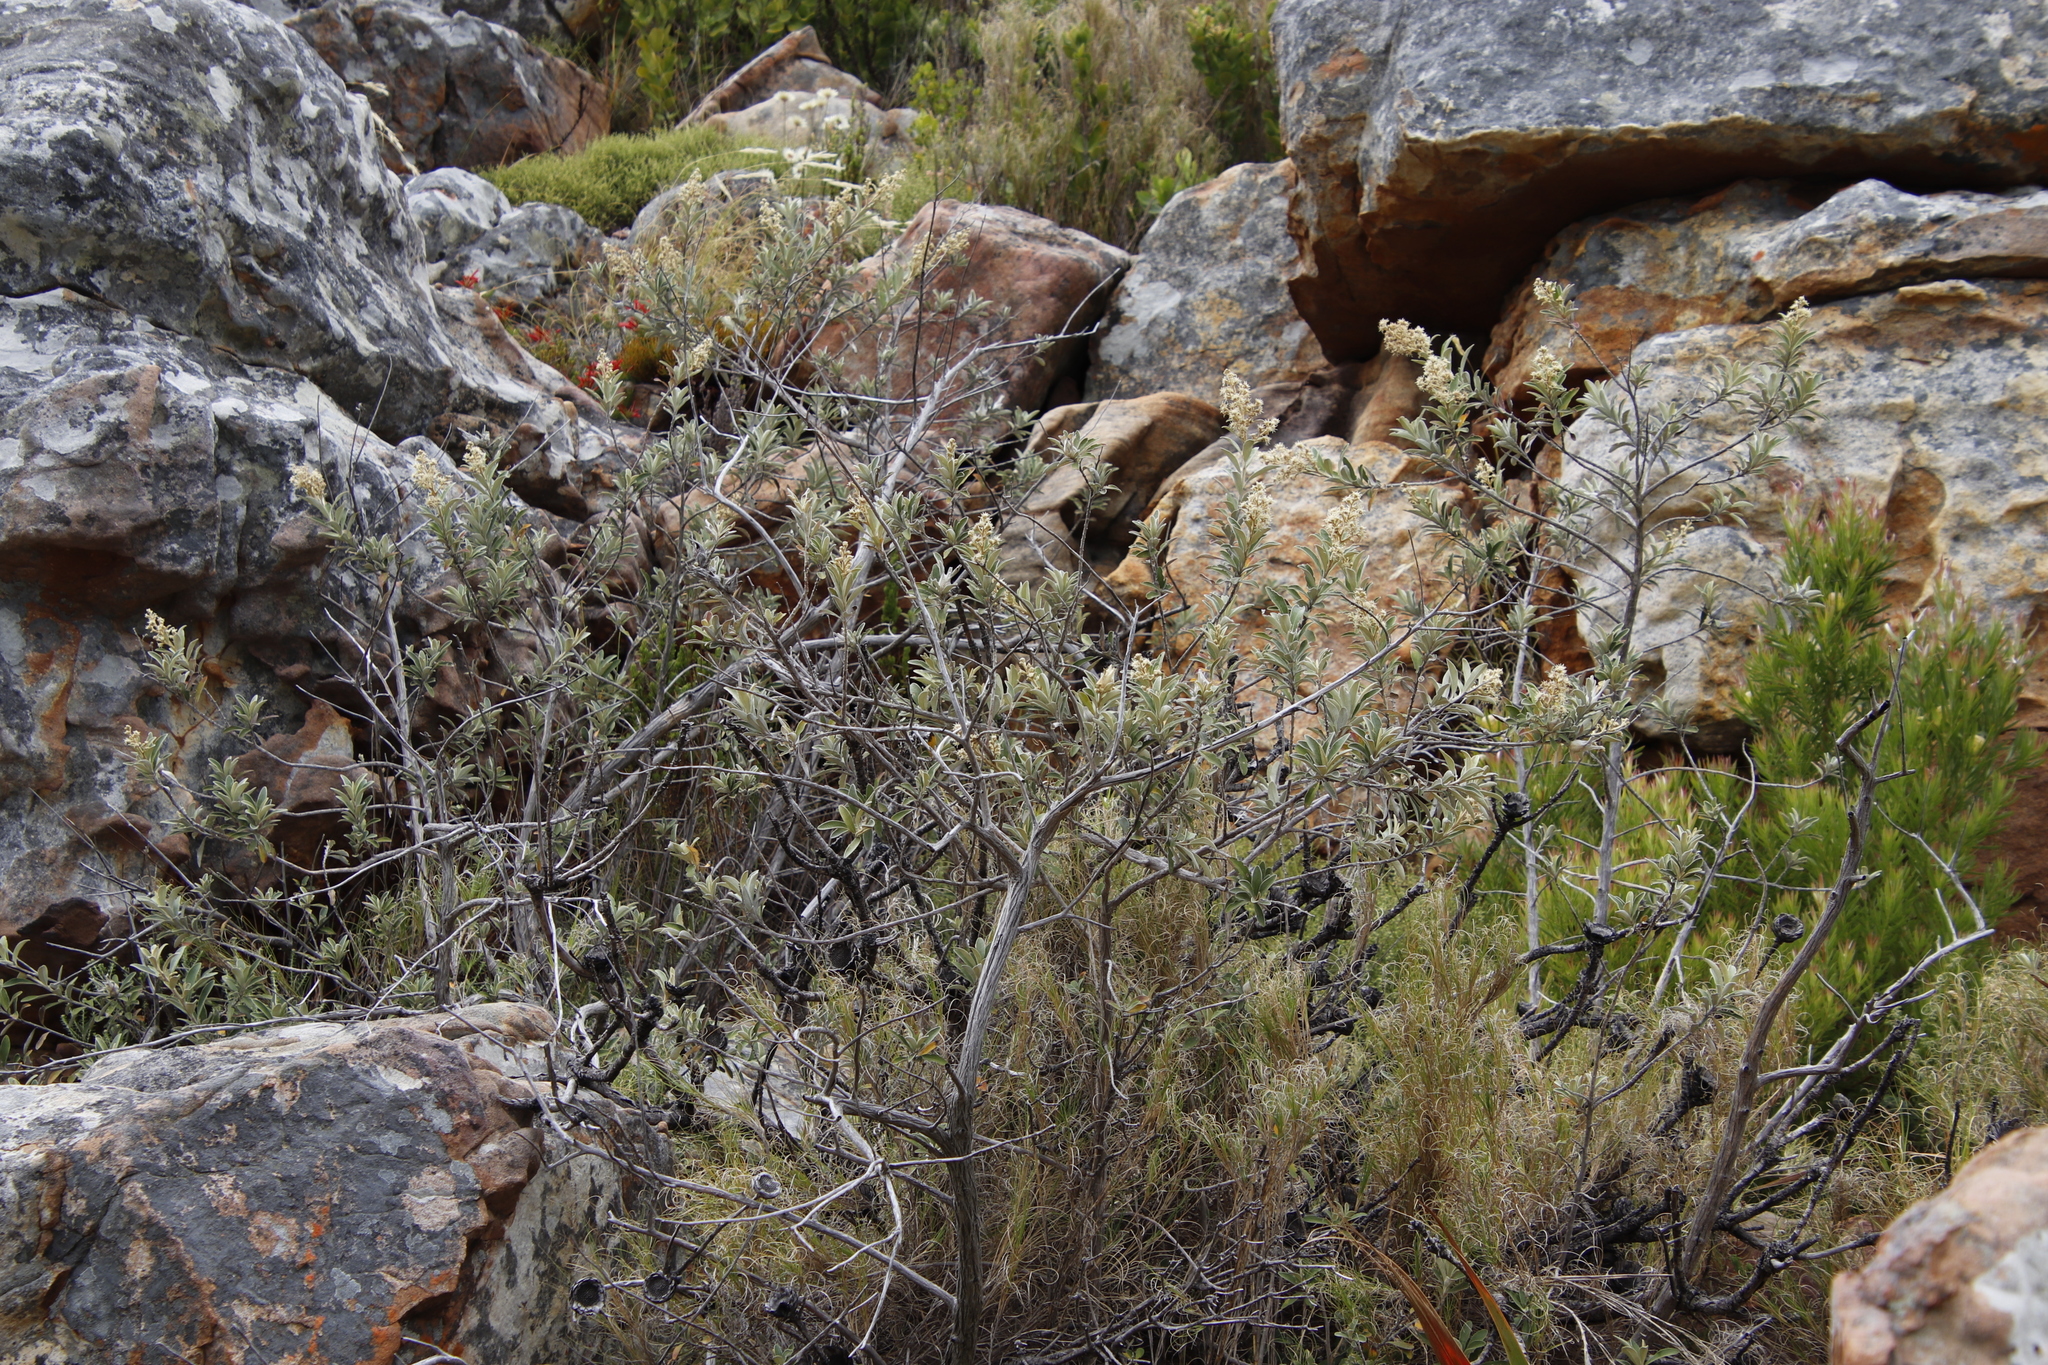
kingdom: Plantae
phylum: Tracheophyta
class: Magnoliopsida
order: Asterales
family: Asteraceae
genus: Tarchonanthus
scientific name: Tarchonanthus littoralis
